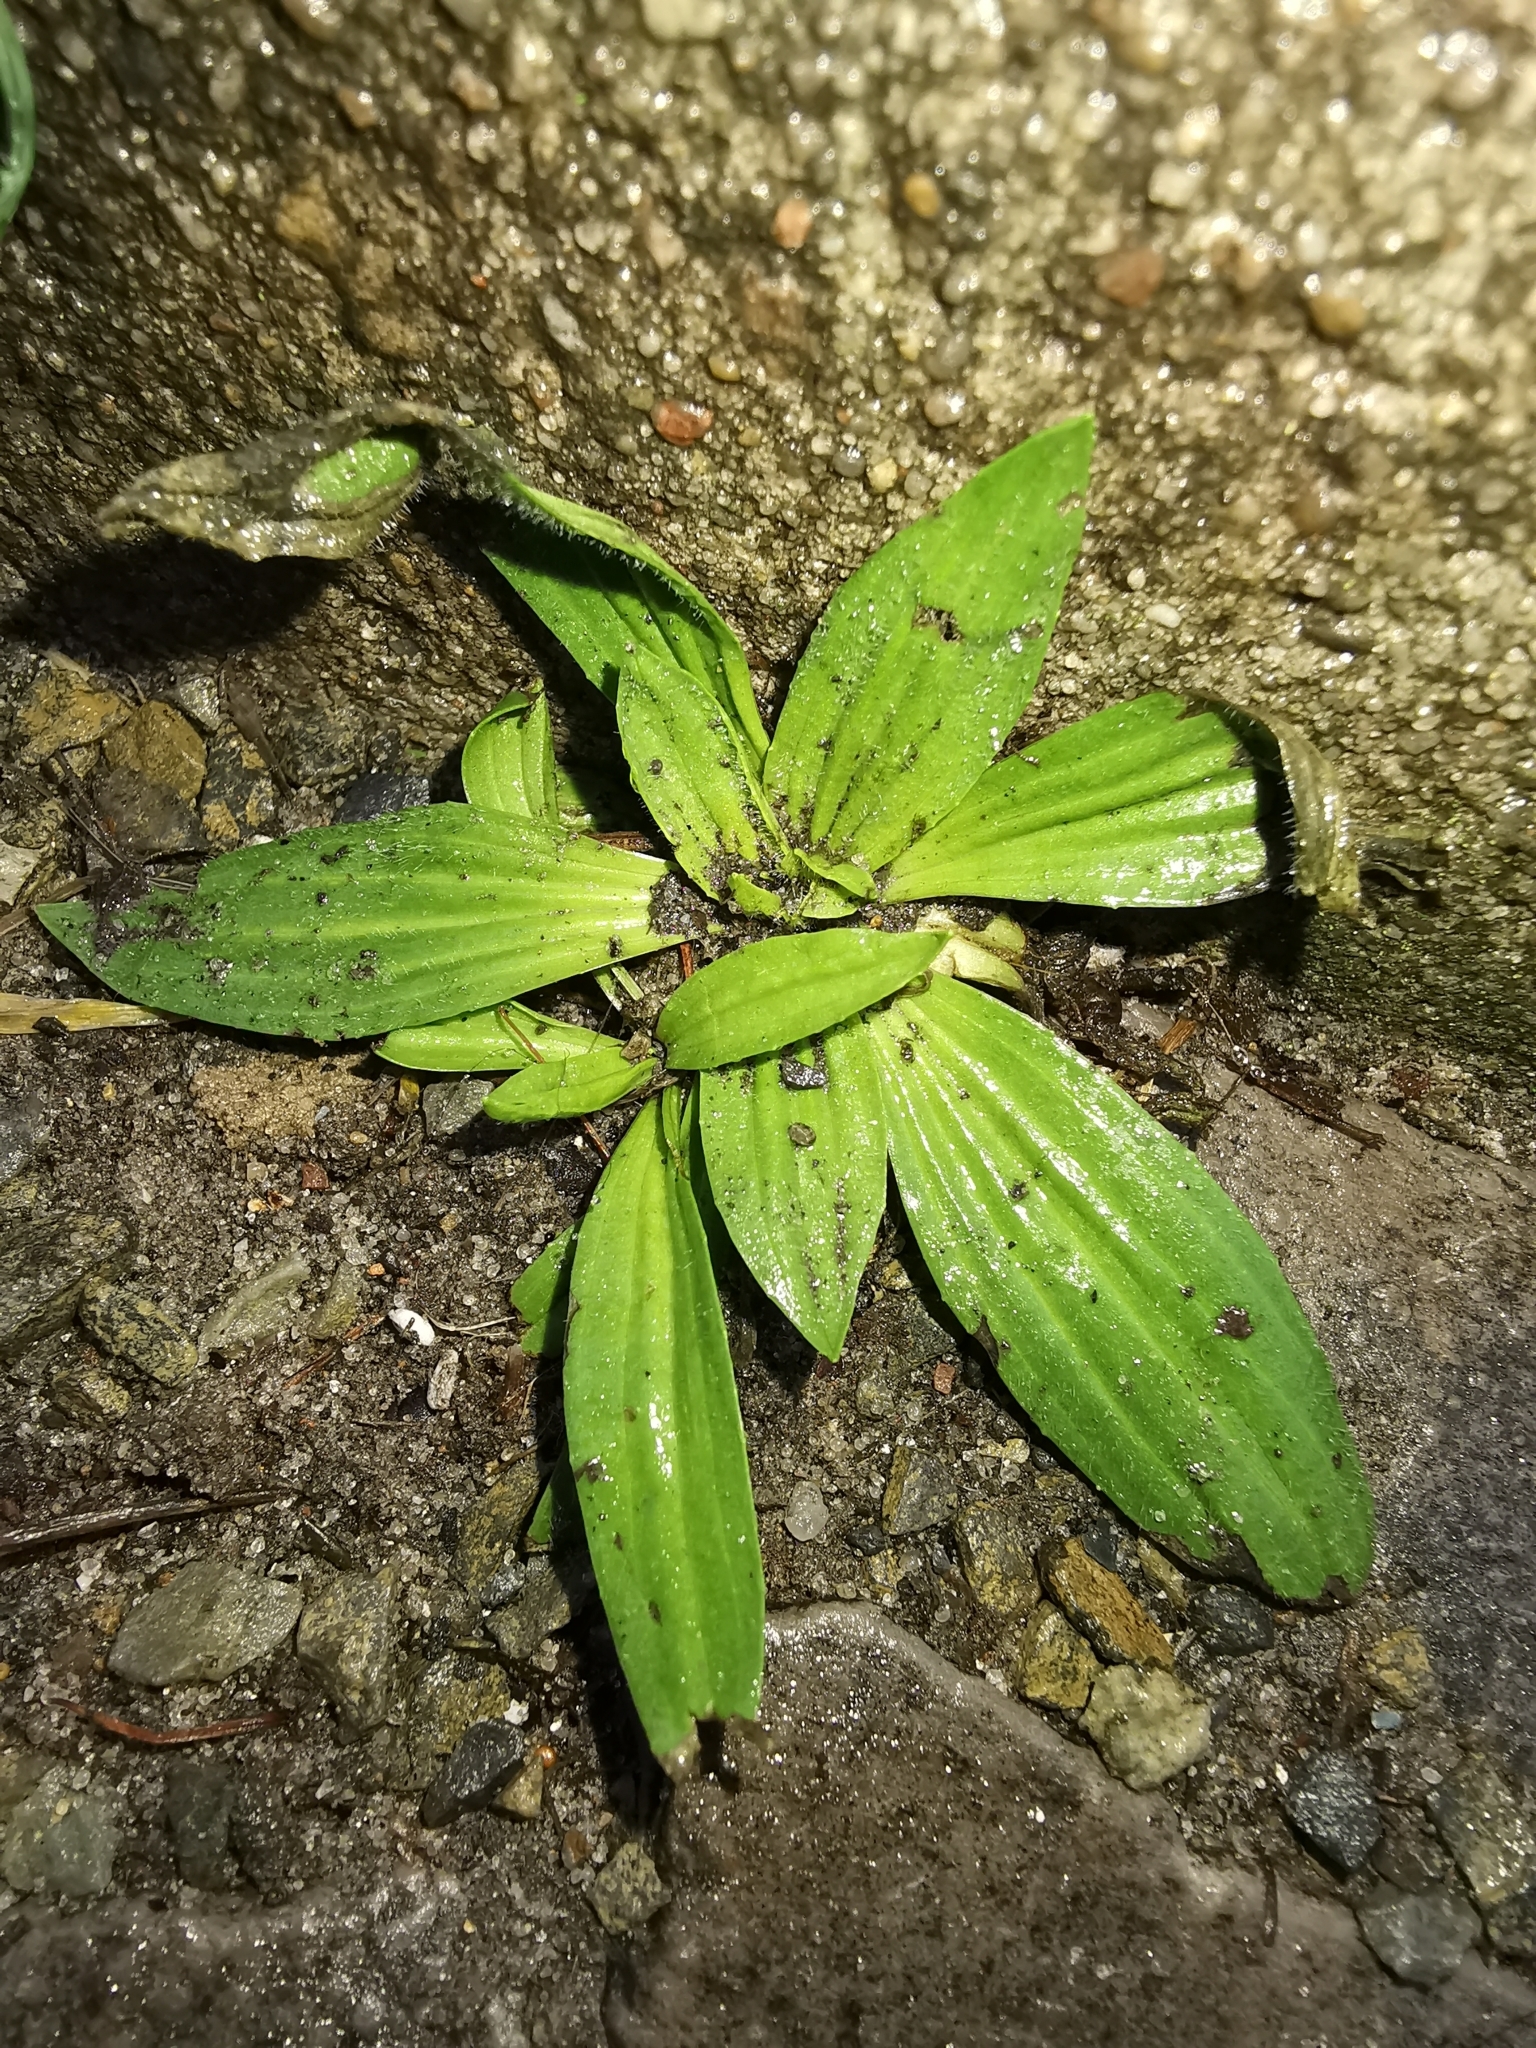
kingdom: Plantae
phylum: Tracheophyta
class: Magnoliopsida
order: Lamiales
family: Plantaginaceae
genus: Plantago
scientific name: Plantago lanceolata
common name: Ribwort plantain
